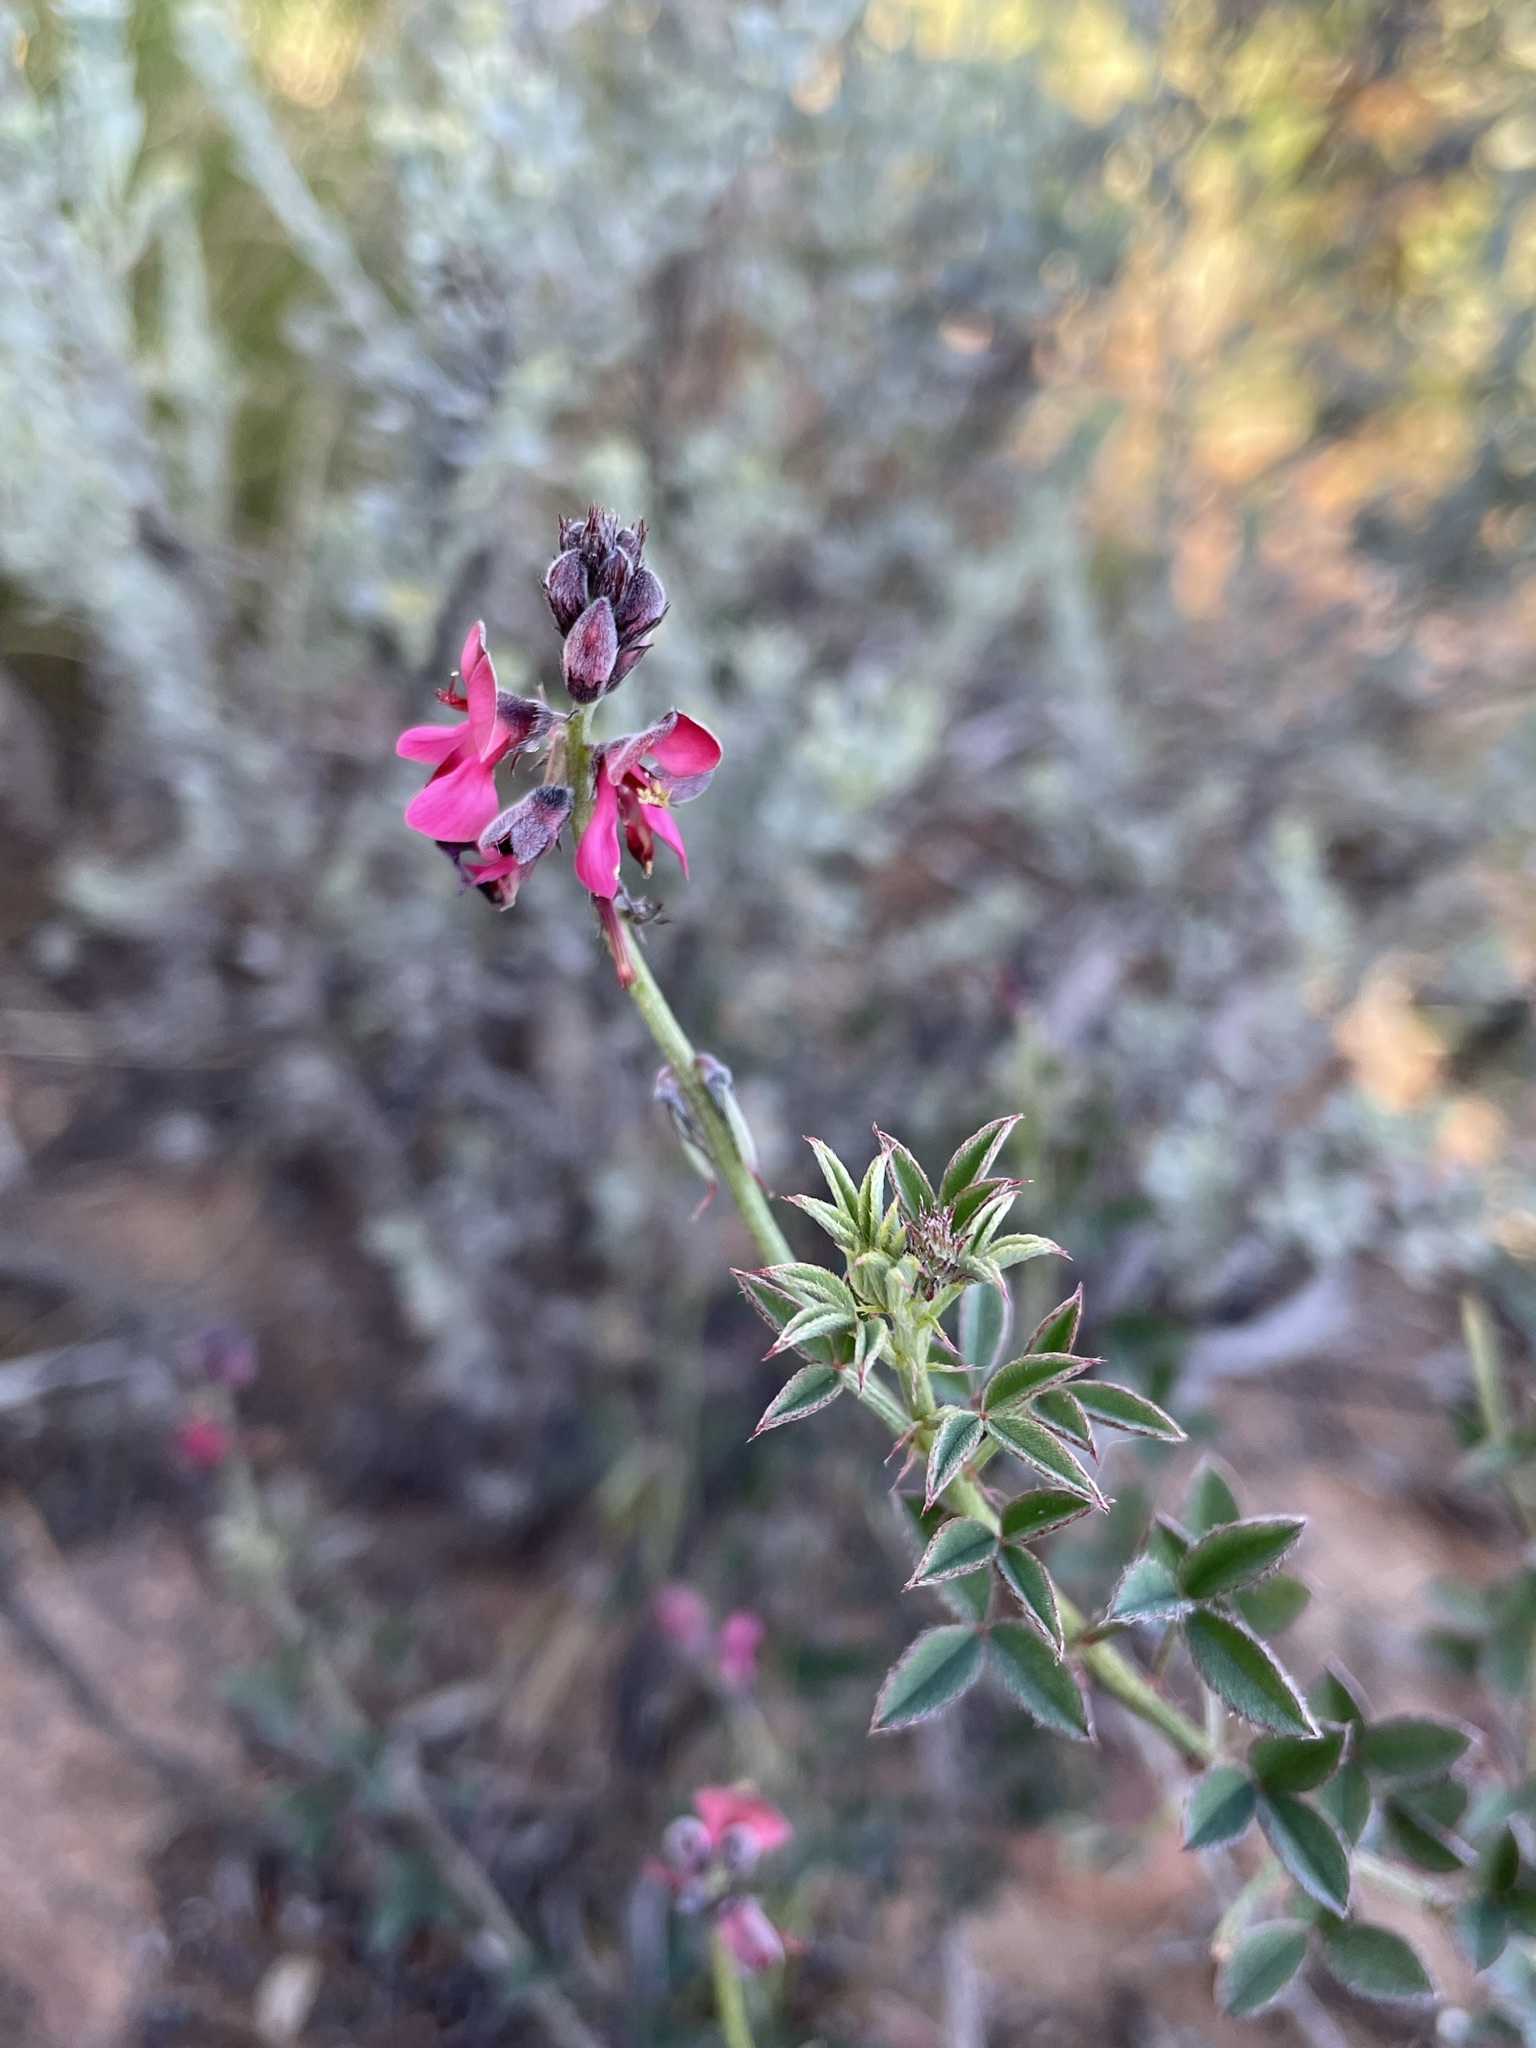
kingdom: Plantae
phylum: Tracheophyta
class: Magnoliopsida
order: Fabales
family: Fabaceae
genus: Indigofera
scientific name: Indigofera heterophylla
